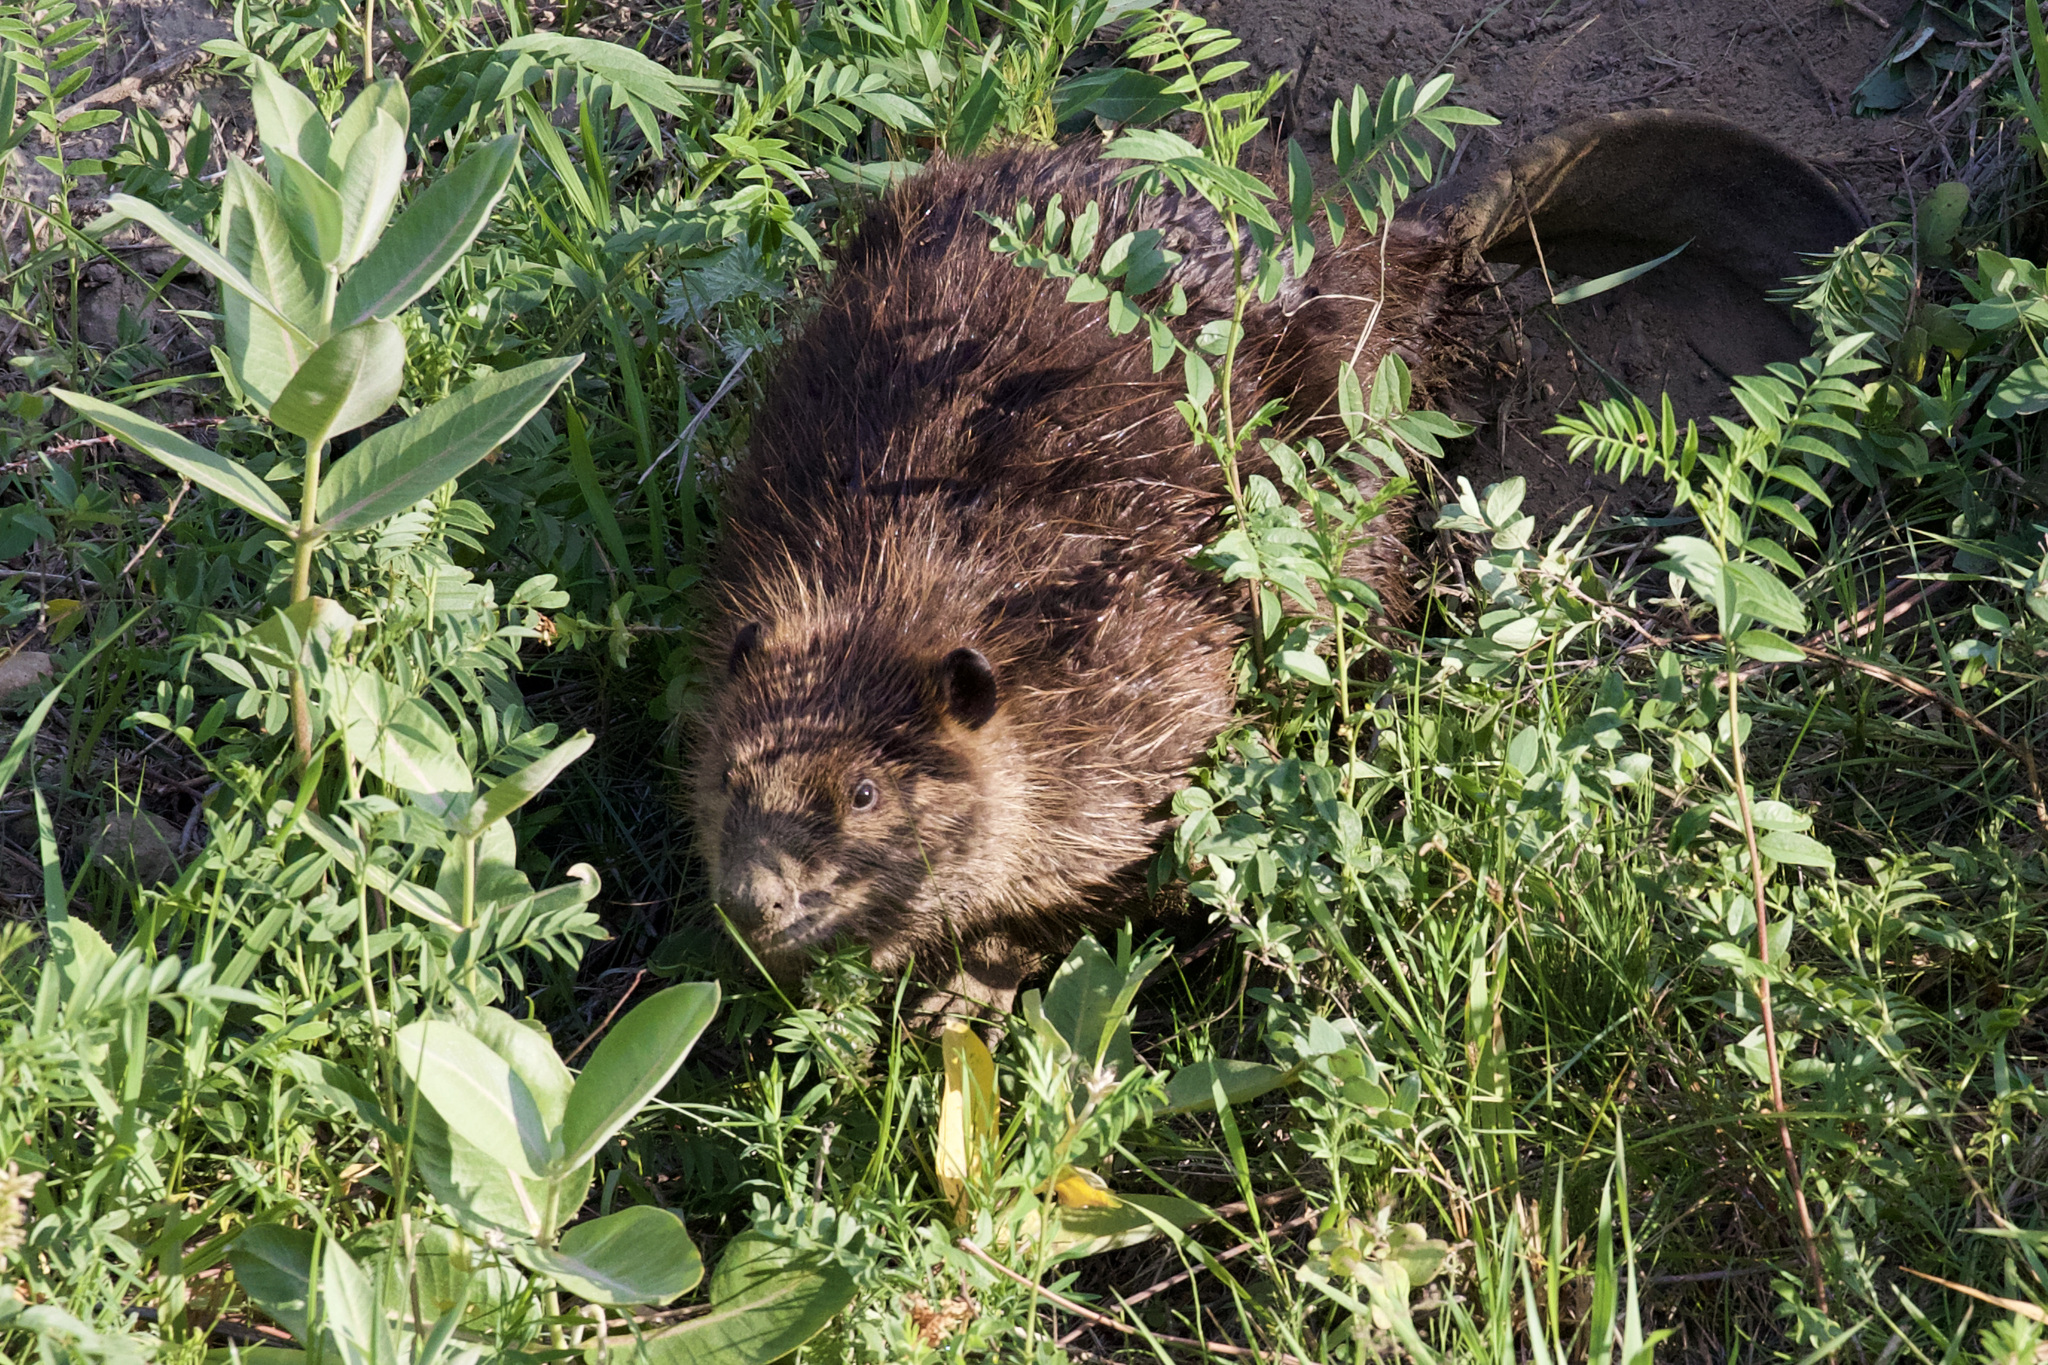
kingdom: Animalia
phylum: Chordata
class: Mammalia
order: Rodentia
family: Castoridae
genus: Castor
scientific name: Castor canadensis
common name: American beaver
